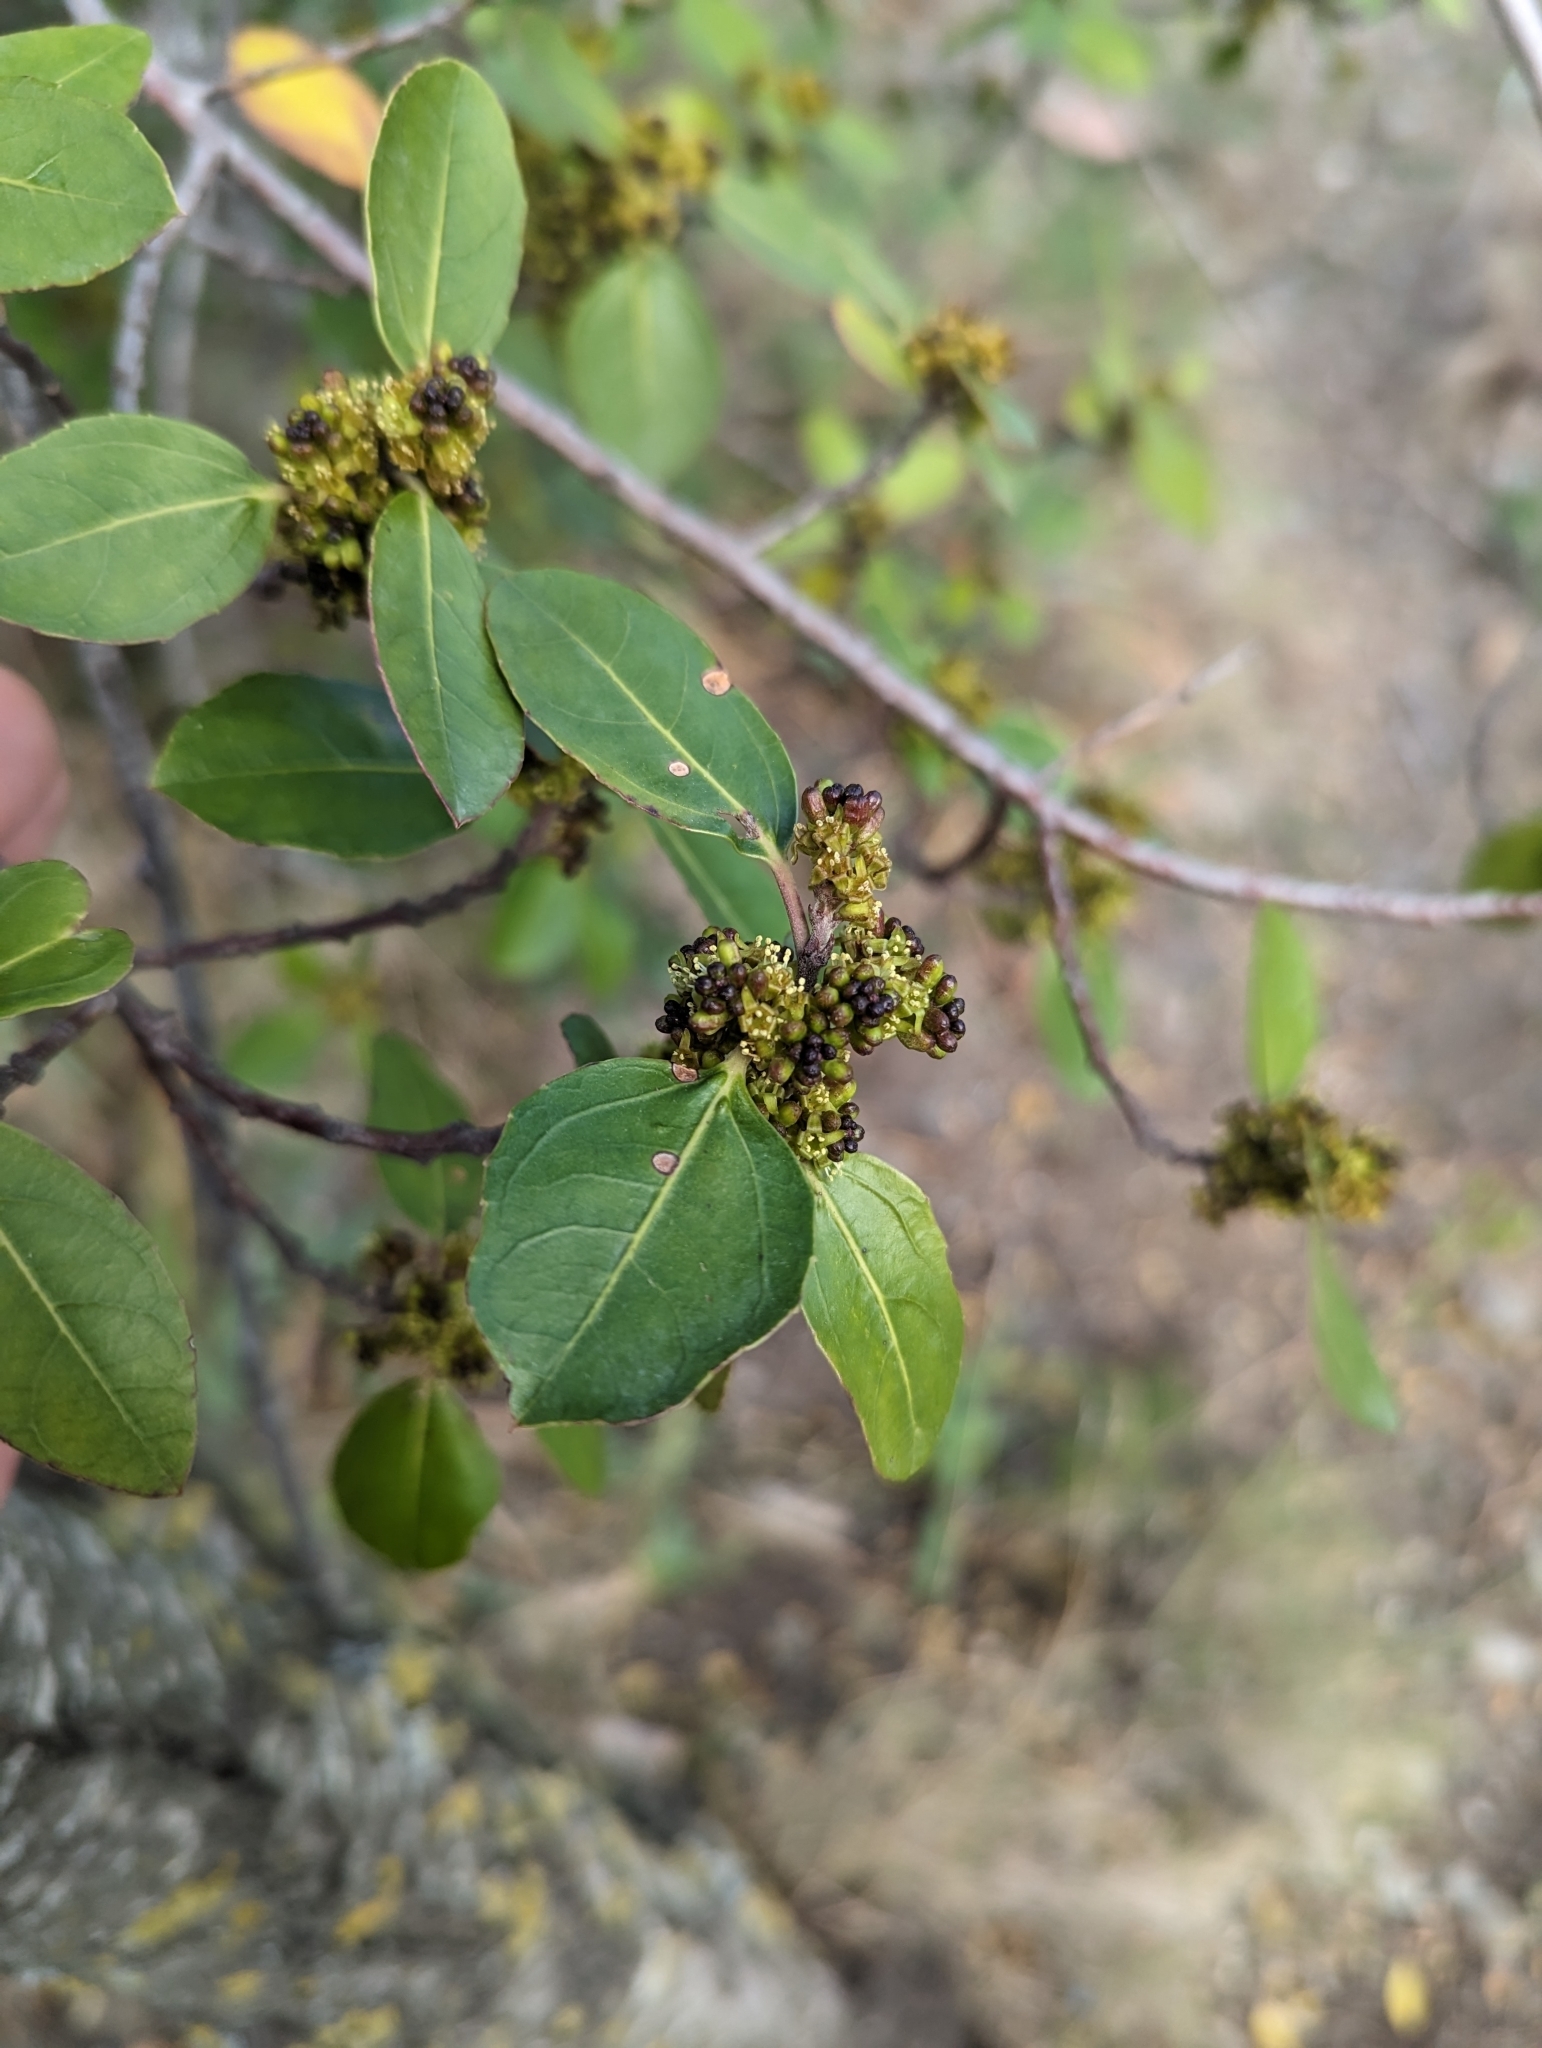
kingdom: Plantae
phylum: Tracheophyta
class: Magnoliopsida
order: Rosales
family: Rhamnaceae
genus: Rhamnus
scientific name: Rhamnus alaternus
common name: Mediterranean buckthorn
